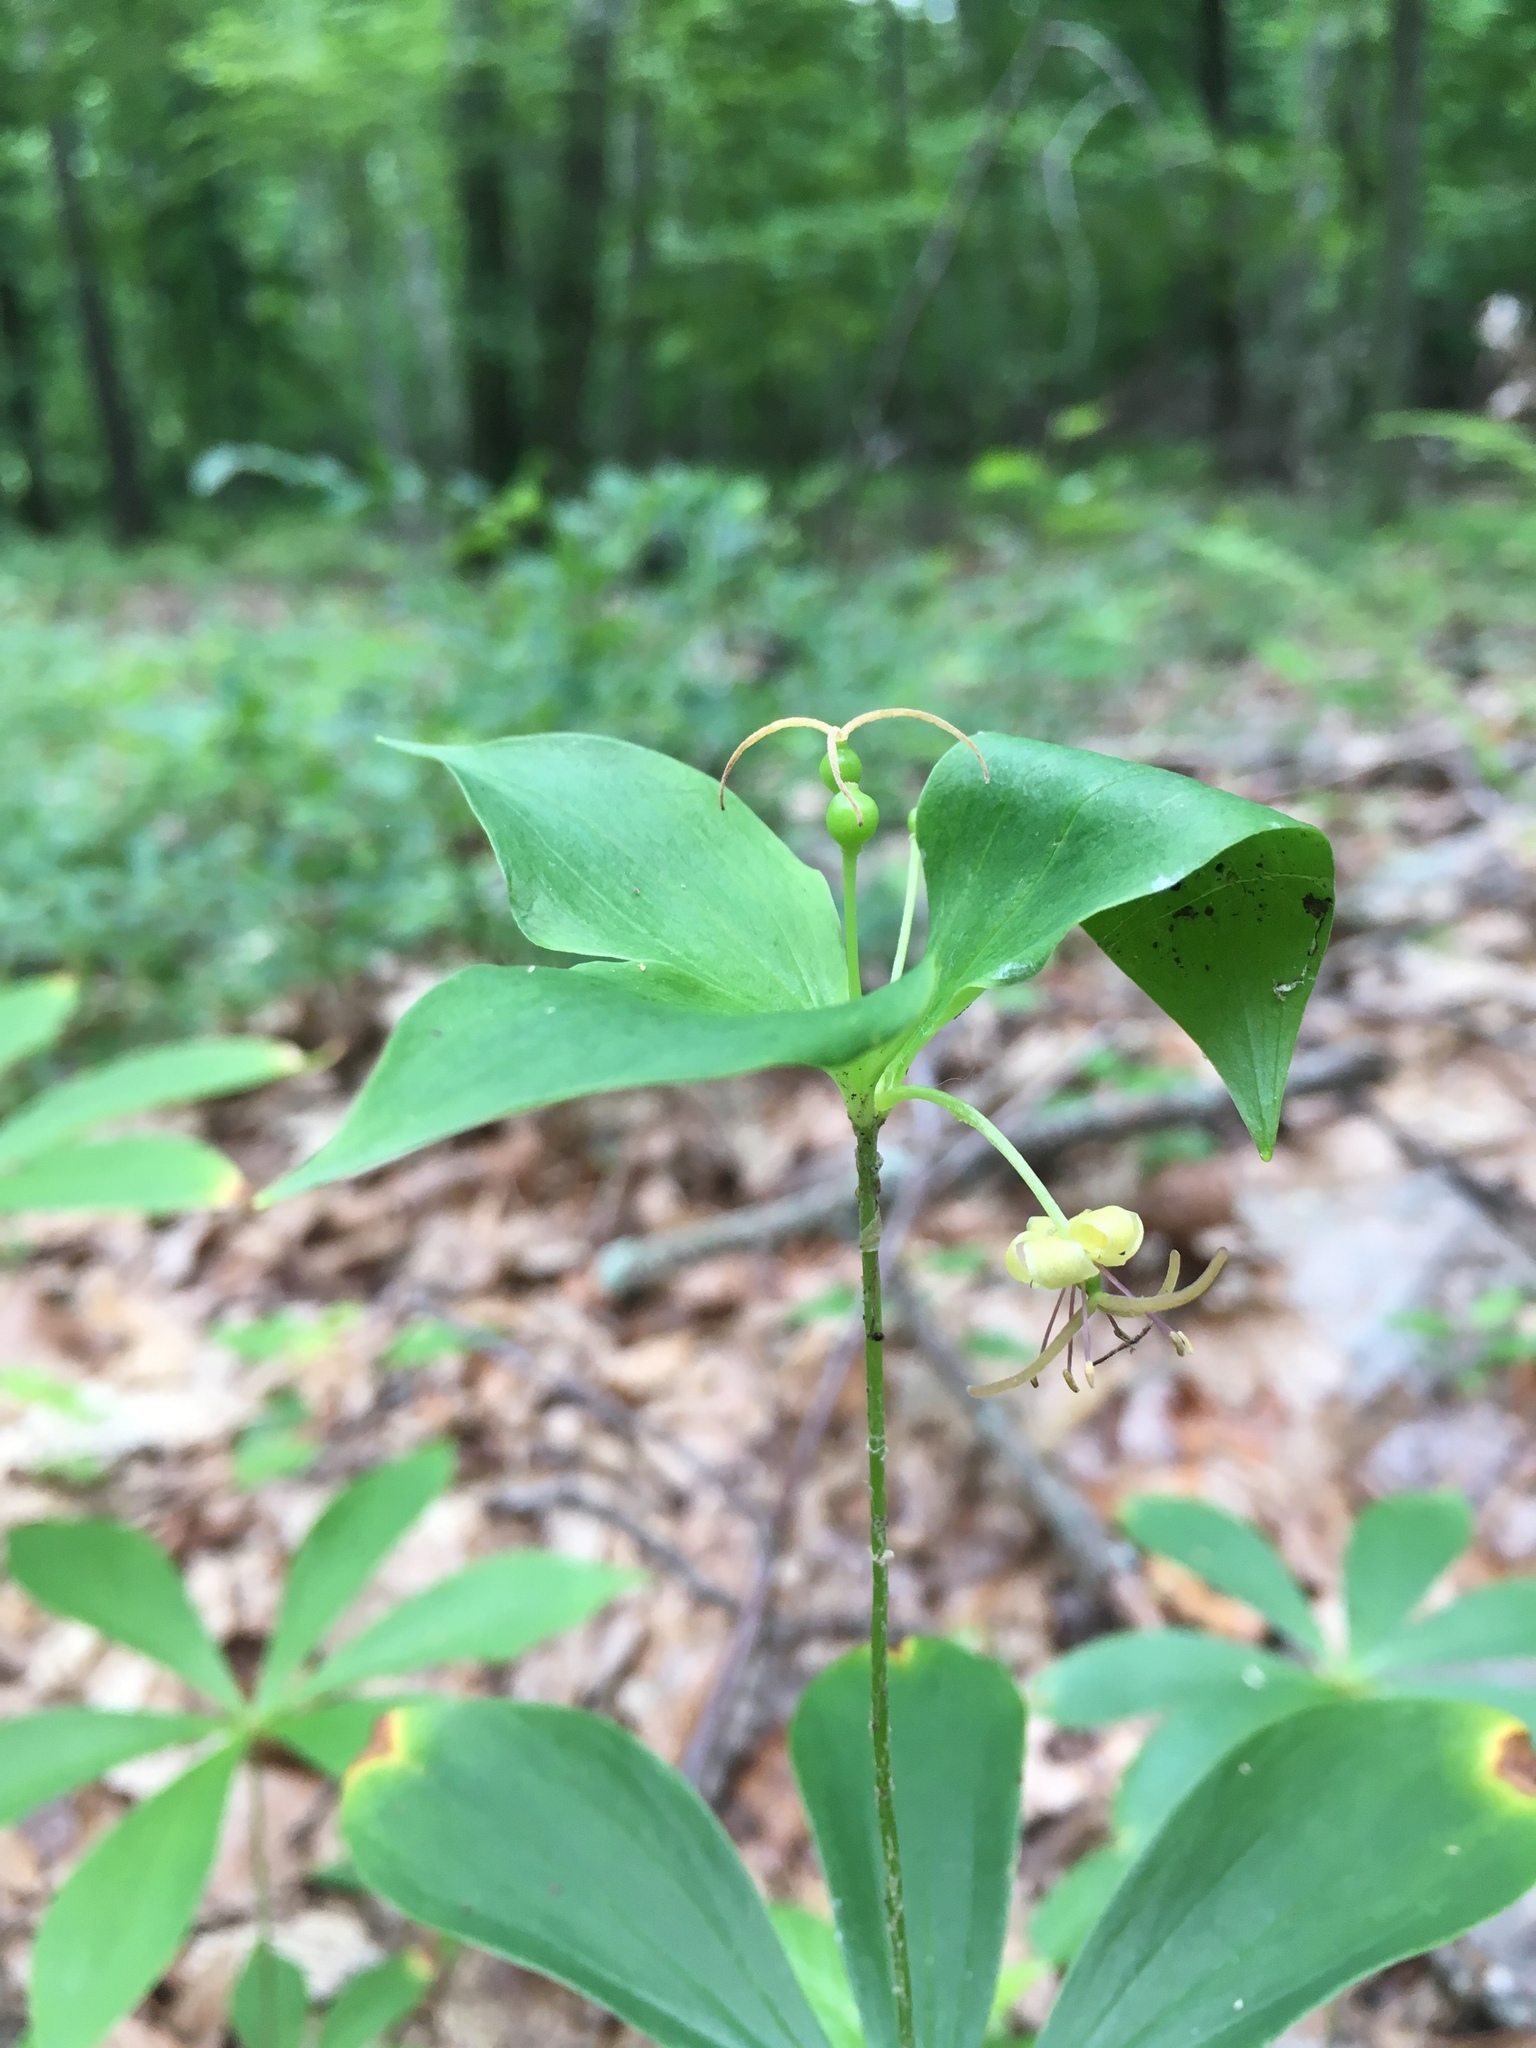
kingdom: Plantae
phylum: Tracheophyta
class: Liliopsida
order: Liliales
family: Liliaceae
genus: Medeola
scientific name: Medeola virginiana
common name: Indian cucumber-root
